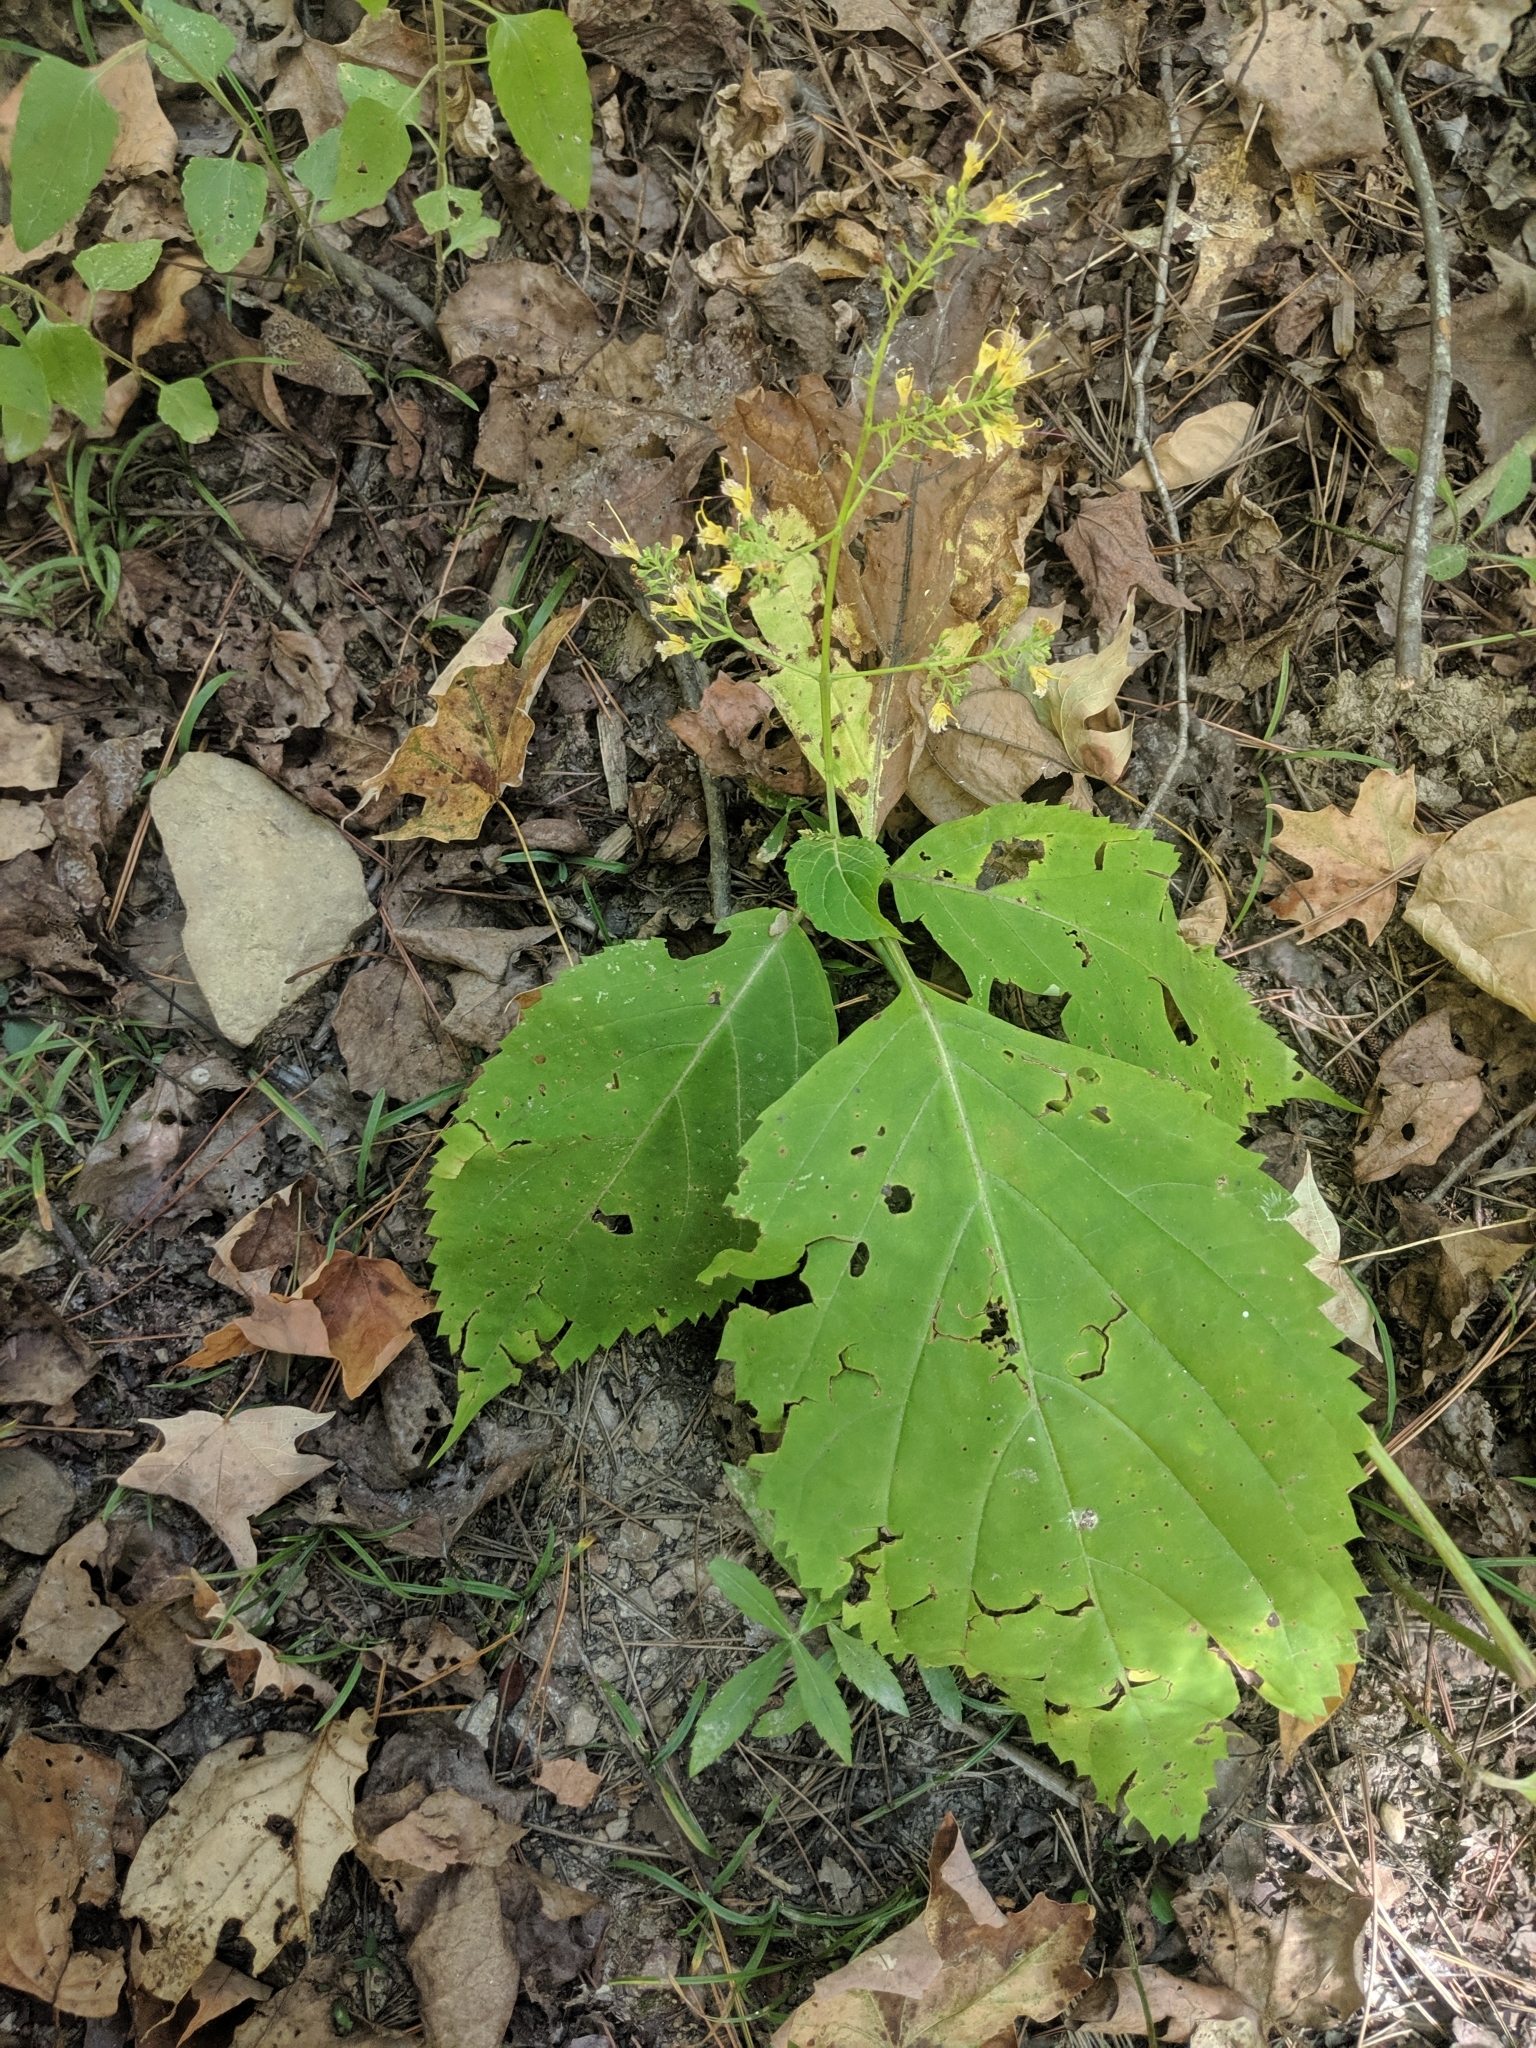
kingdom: Plantae
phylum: Tracheophyta
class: Magnoliopsida
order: Lamiales
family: Lamiaceae
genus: Collinsonia
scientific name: Collinsonia canadensis
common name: Northern horsebalm
